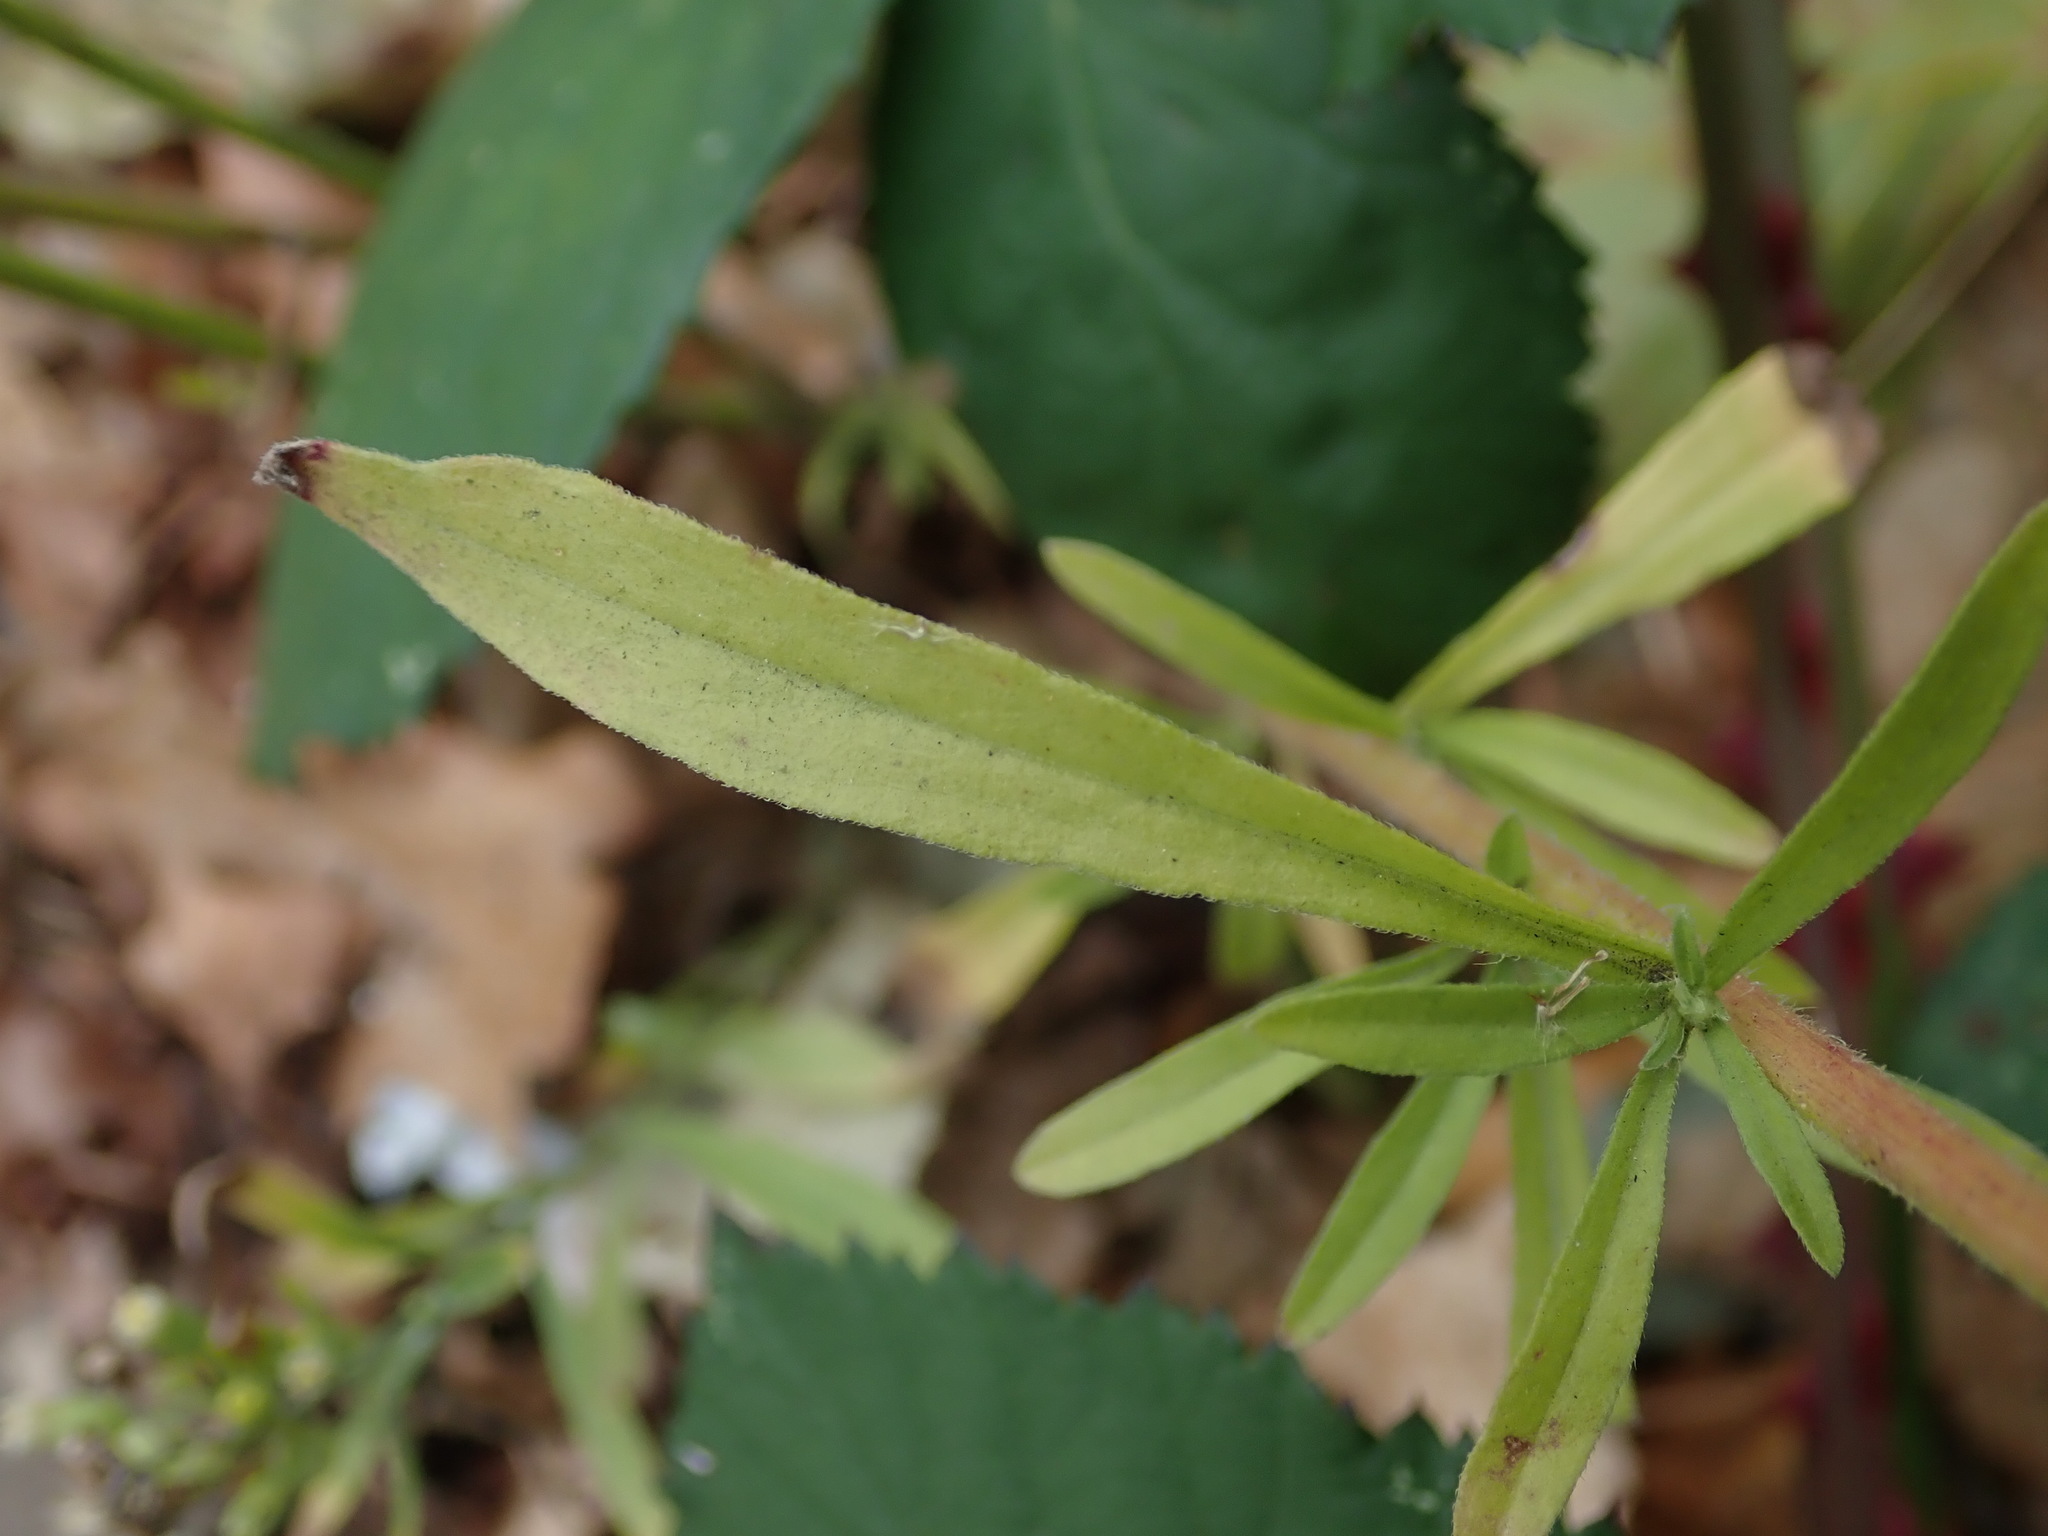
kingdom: Plantae
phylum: Tracheophyta
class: Magnoliopsida
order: Asterales
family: Asteraceae
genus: Erigeron
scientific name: Erigeron sumatrensis
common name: Daisy
